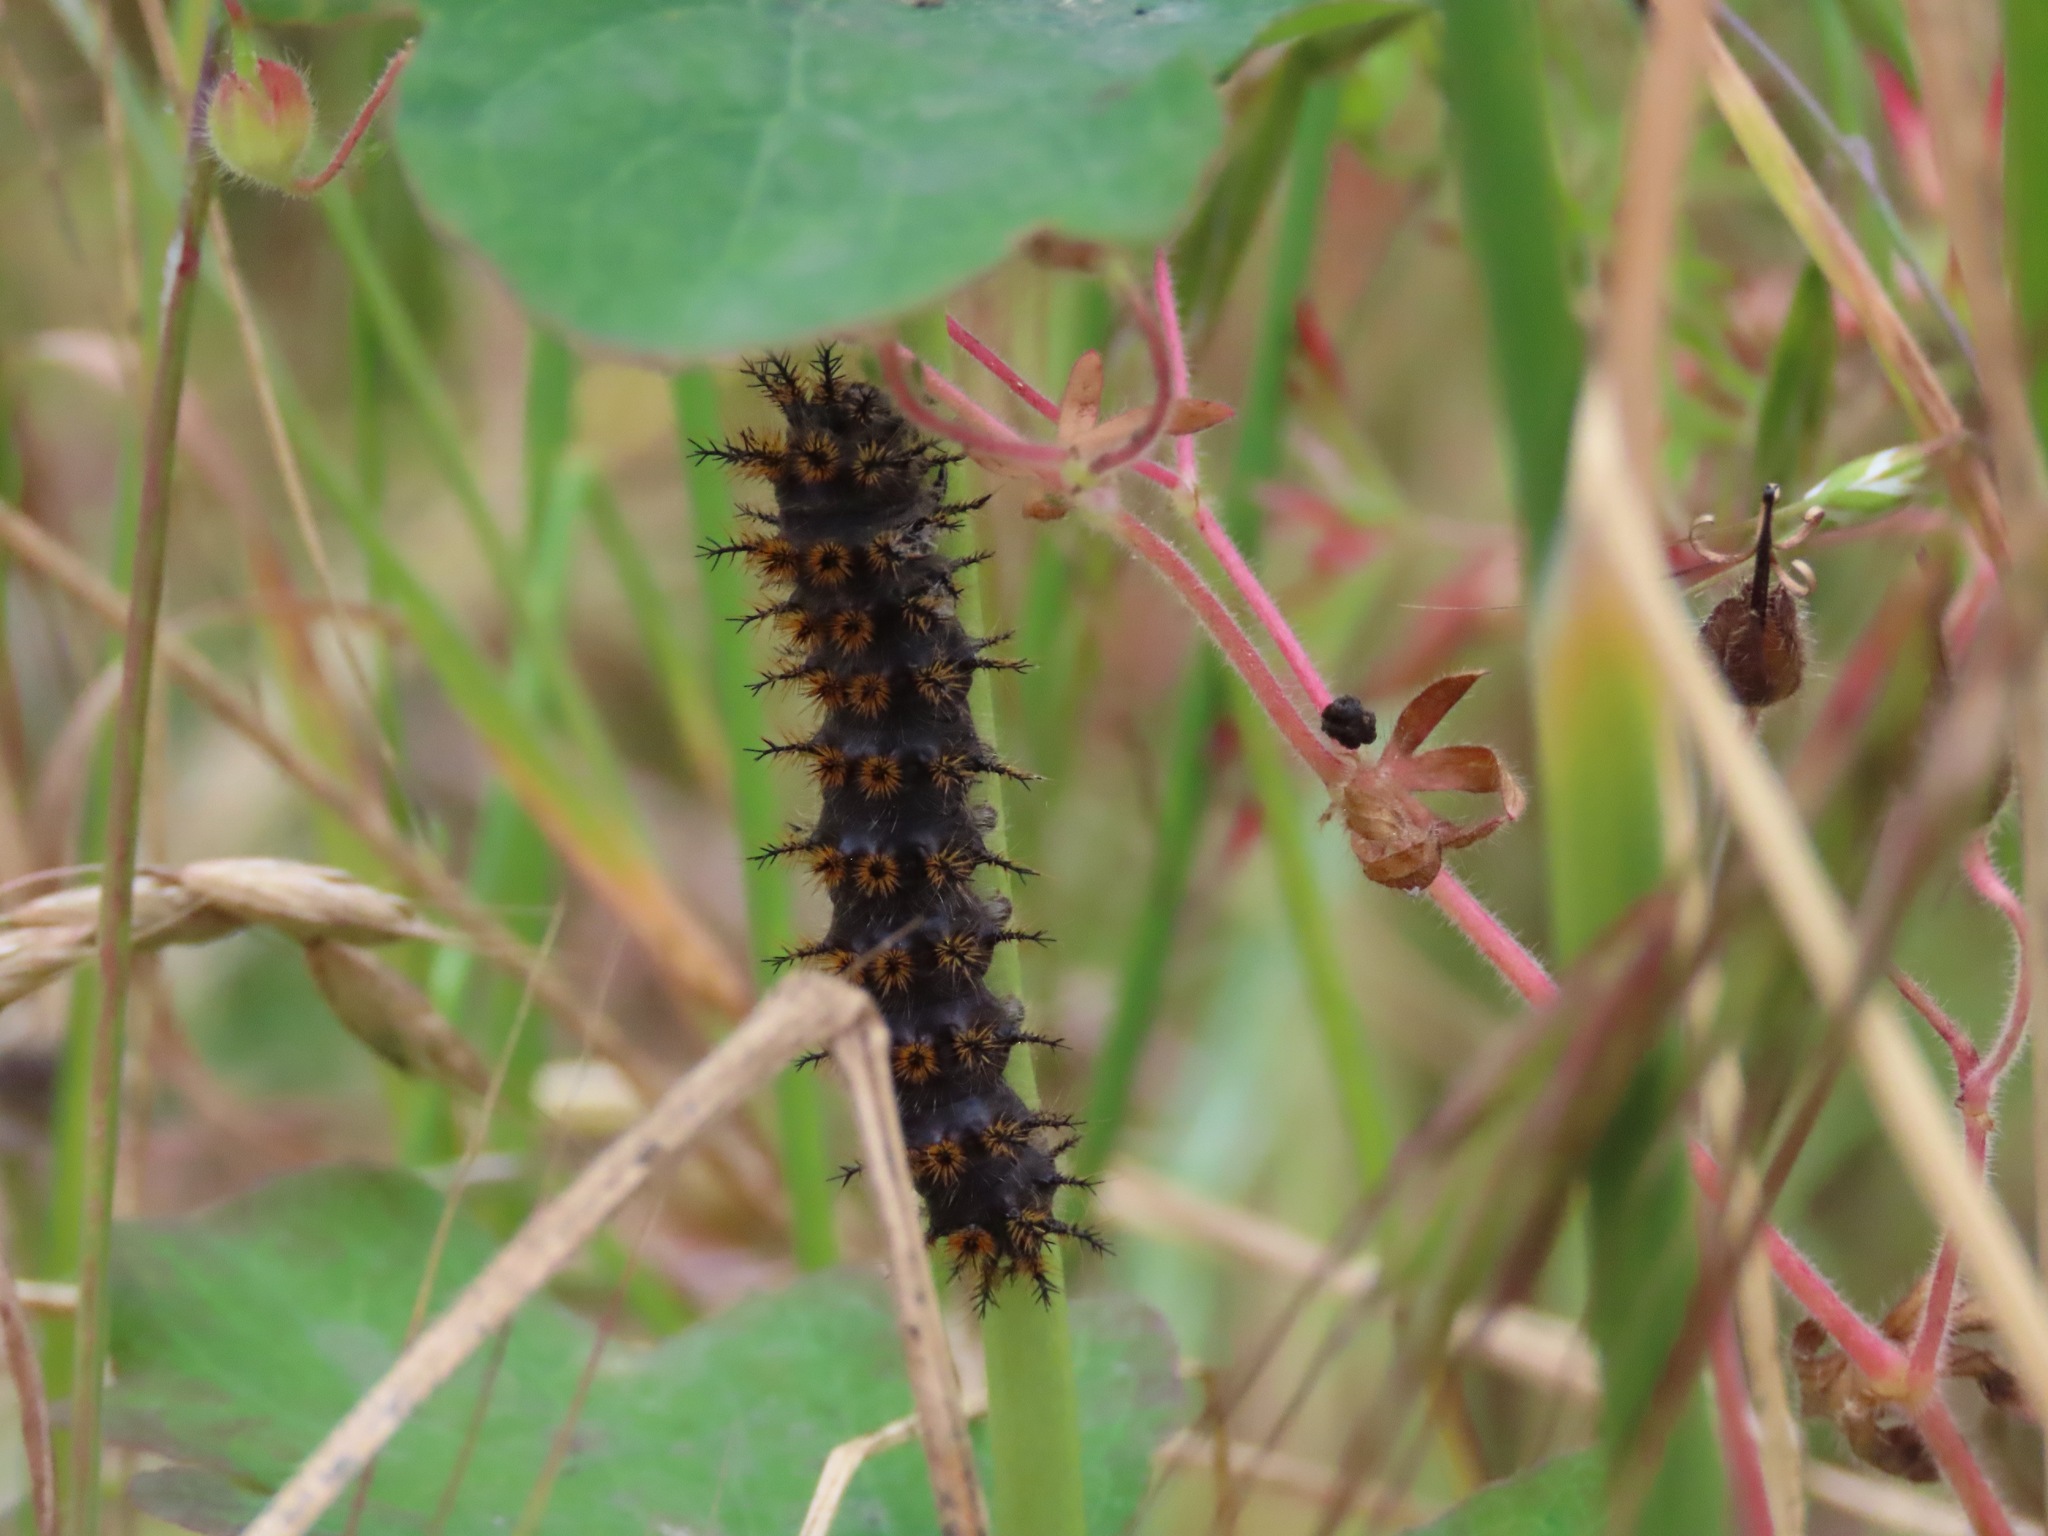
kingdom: Animalia
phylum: Arthropoda
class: Insecta
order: Lepidoptera
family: Saturniidae
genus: Hemileuca
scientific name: Hemileuca eglanterina
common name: Western sheepmoth
